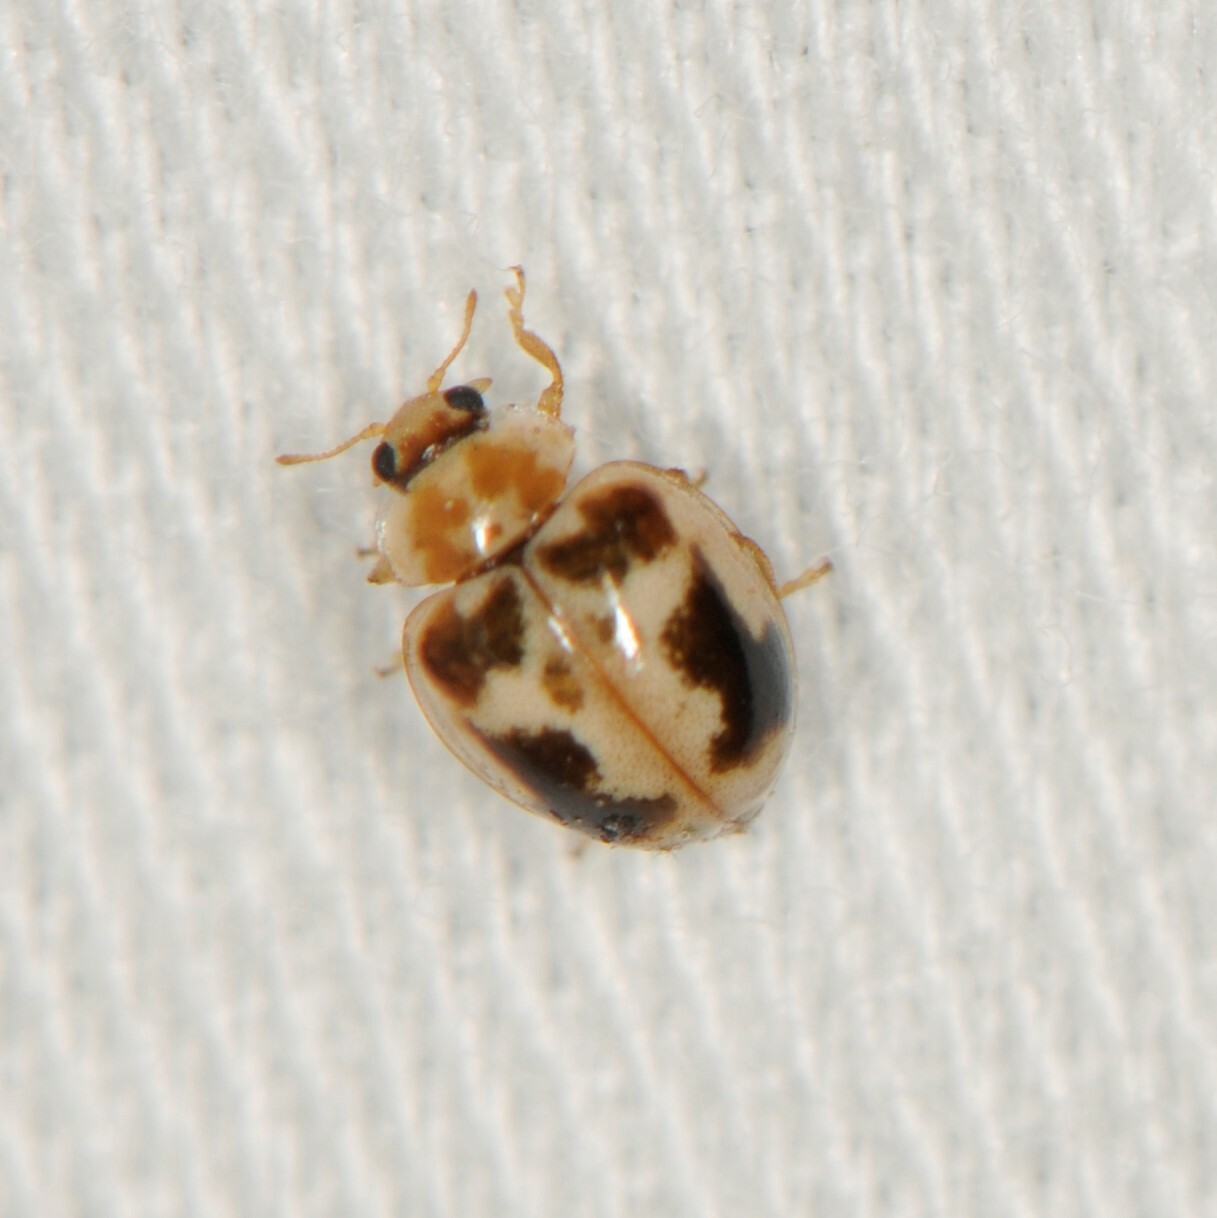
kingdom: Animalia
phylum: Arthropoda
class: Insecta
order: Coleoptera
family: Coccinellidae
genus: Psyllobora
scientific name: Psyllobora renifer
